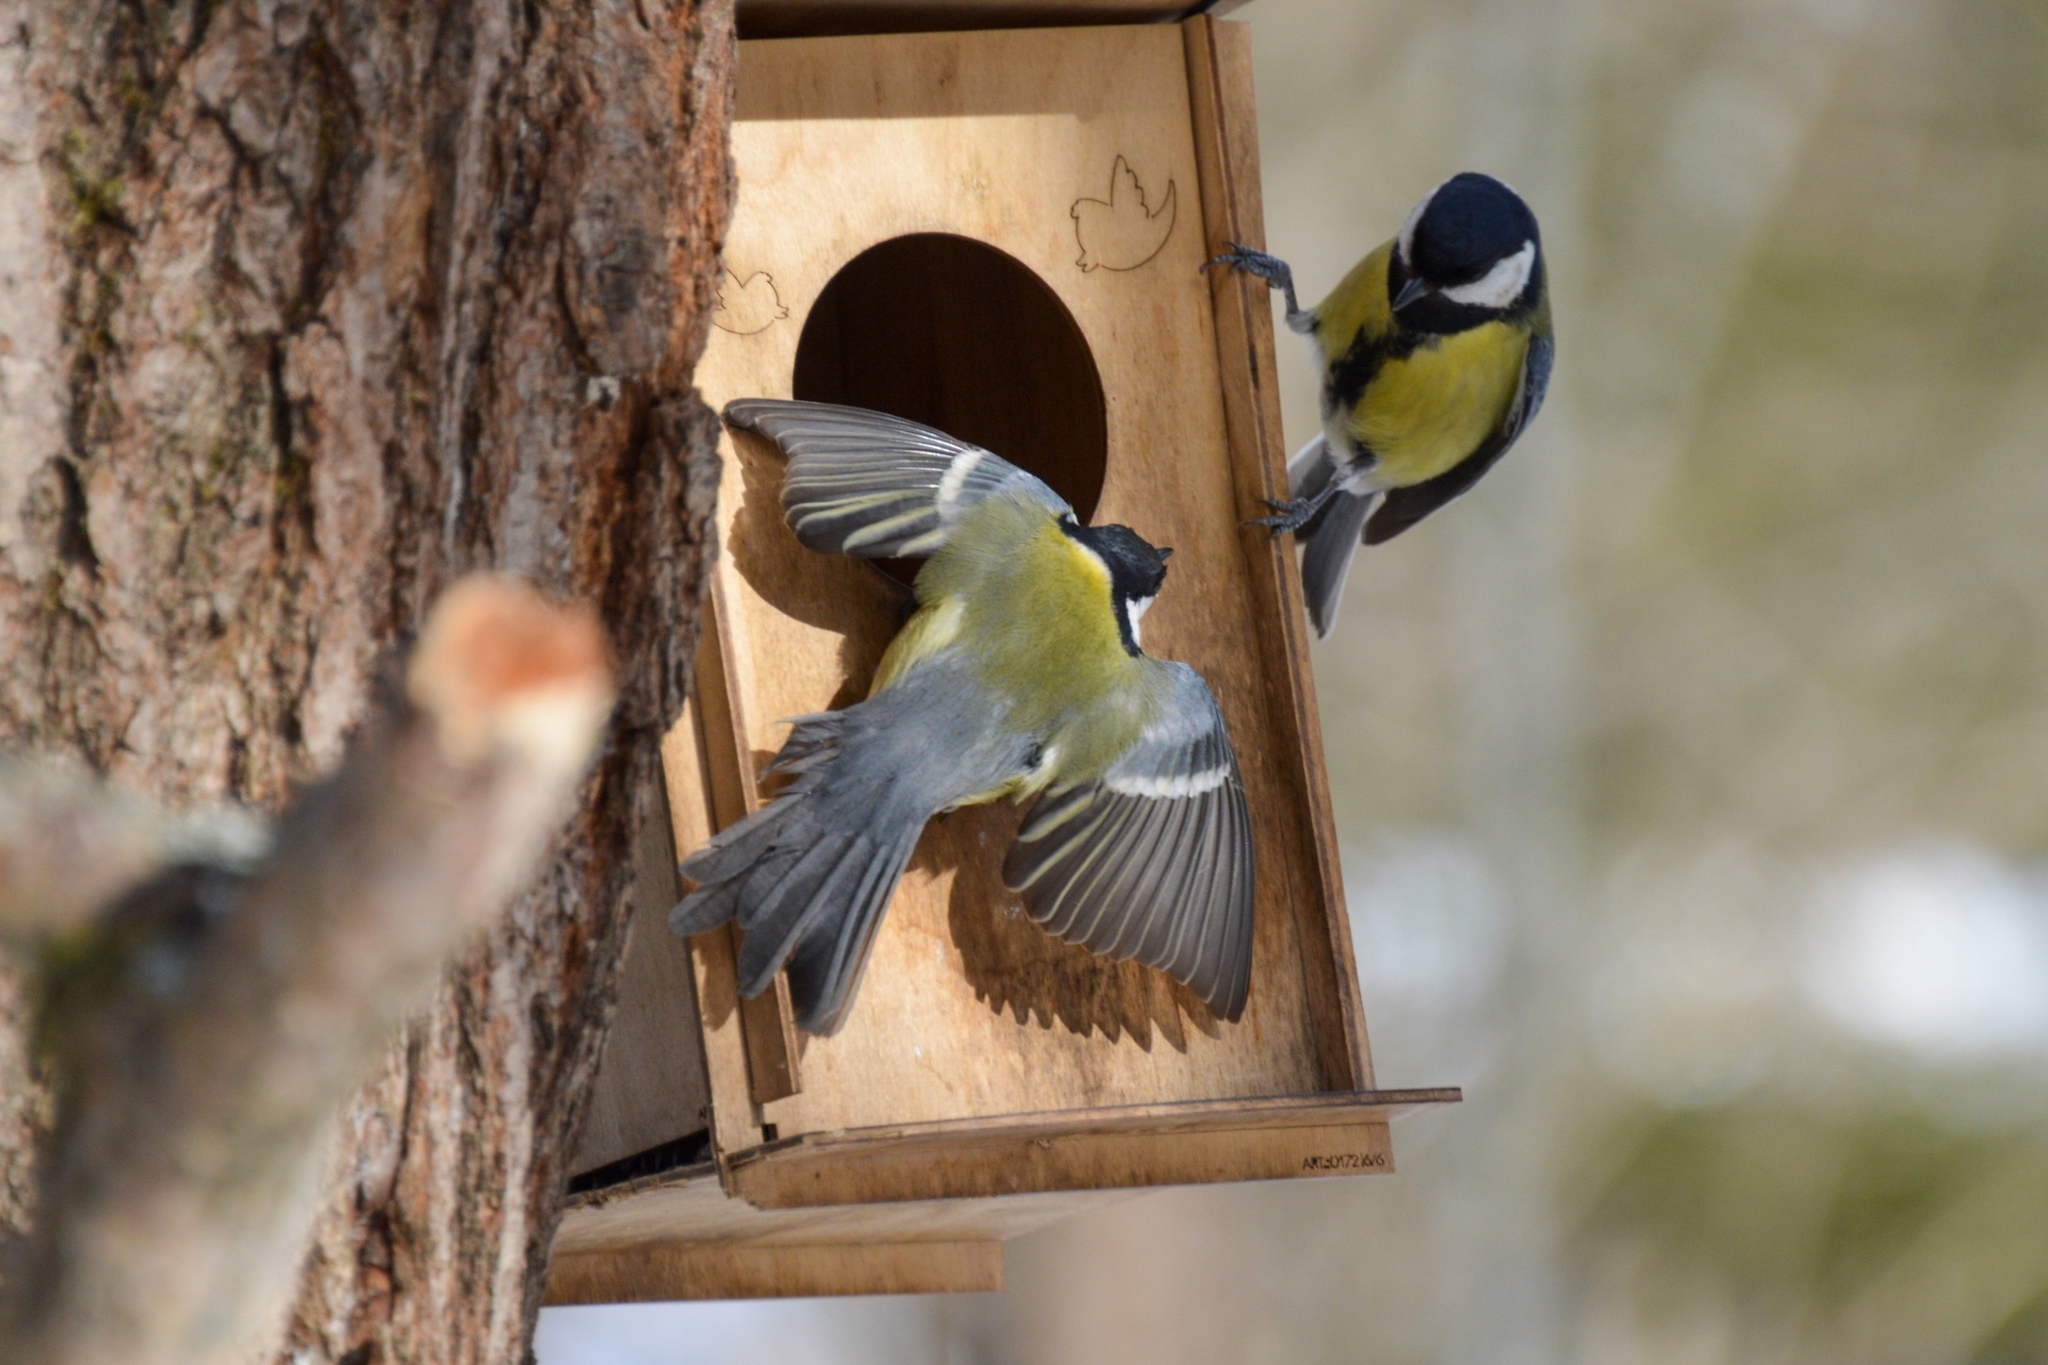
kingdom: Animalia
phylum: Chordata
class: Aves
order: Passeriformes
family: Paridae
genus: Parus
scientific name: Parus major
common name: Great tit
